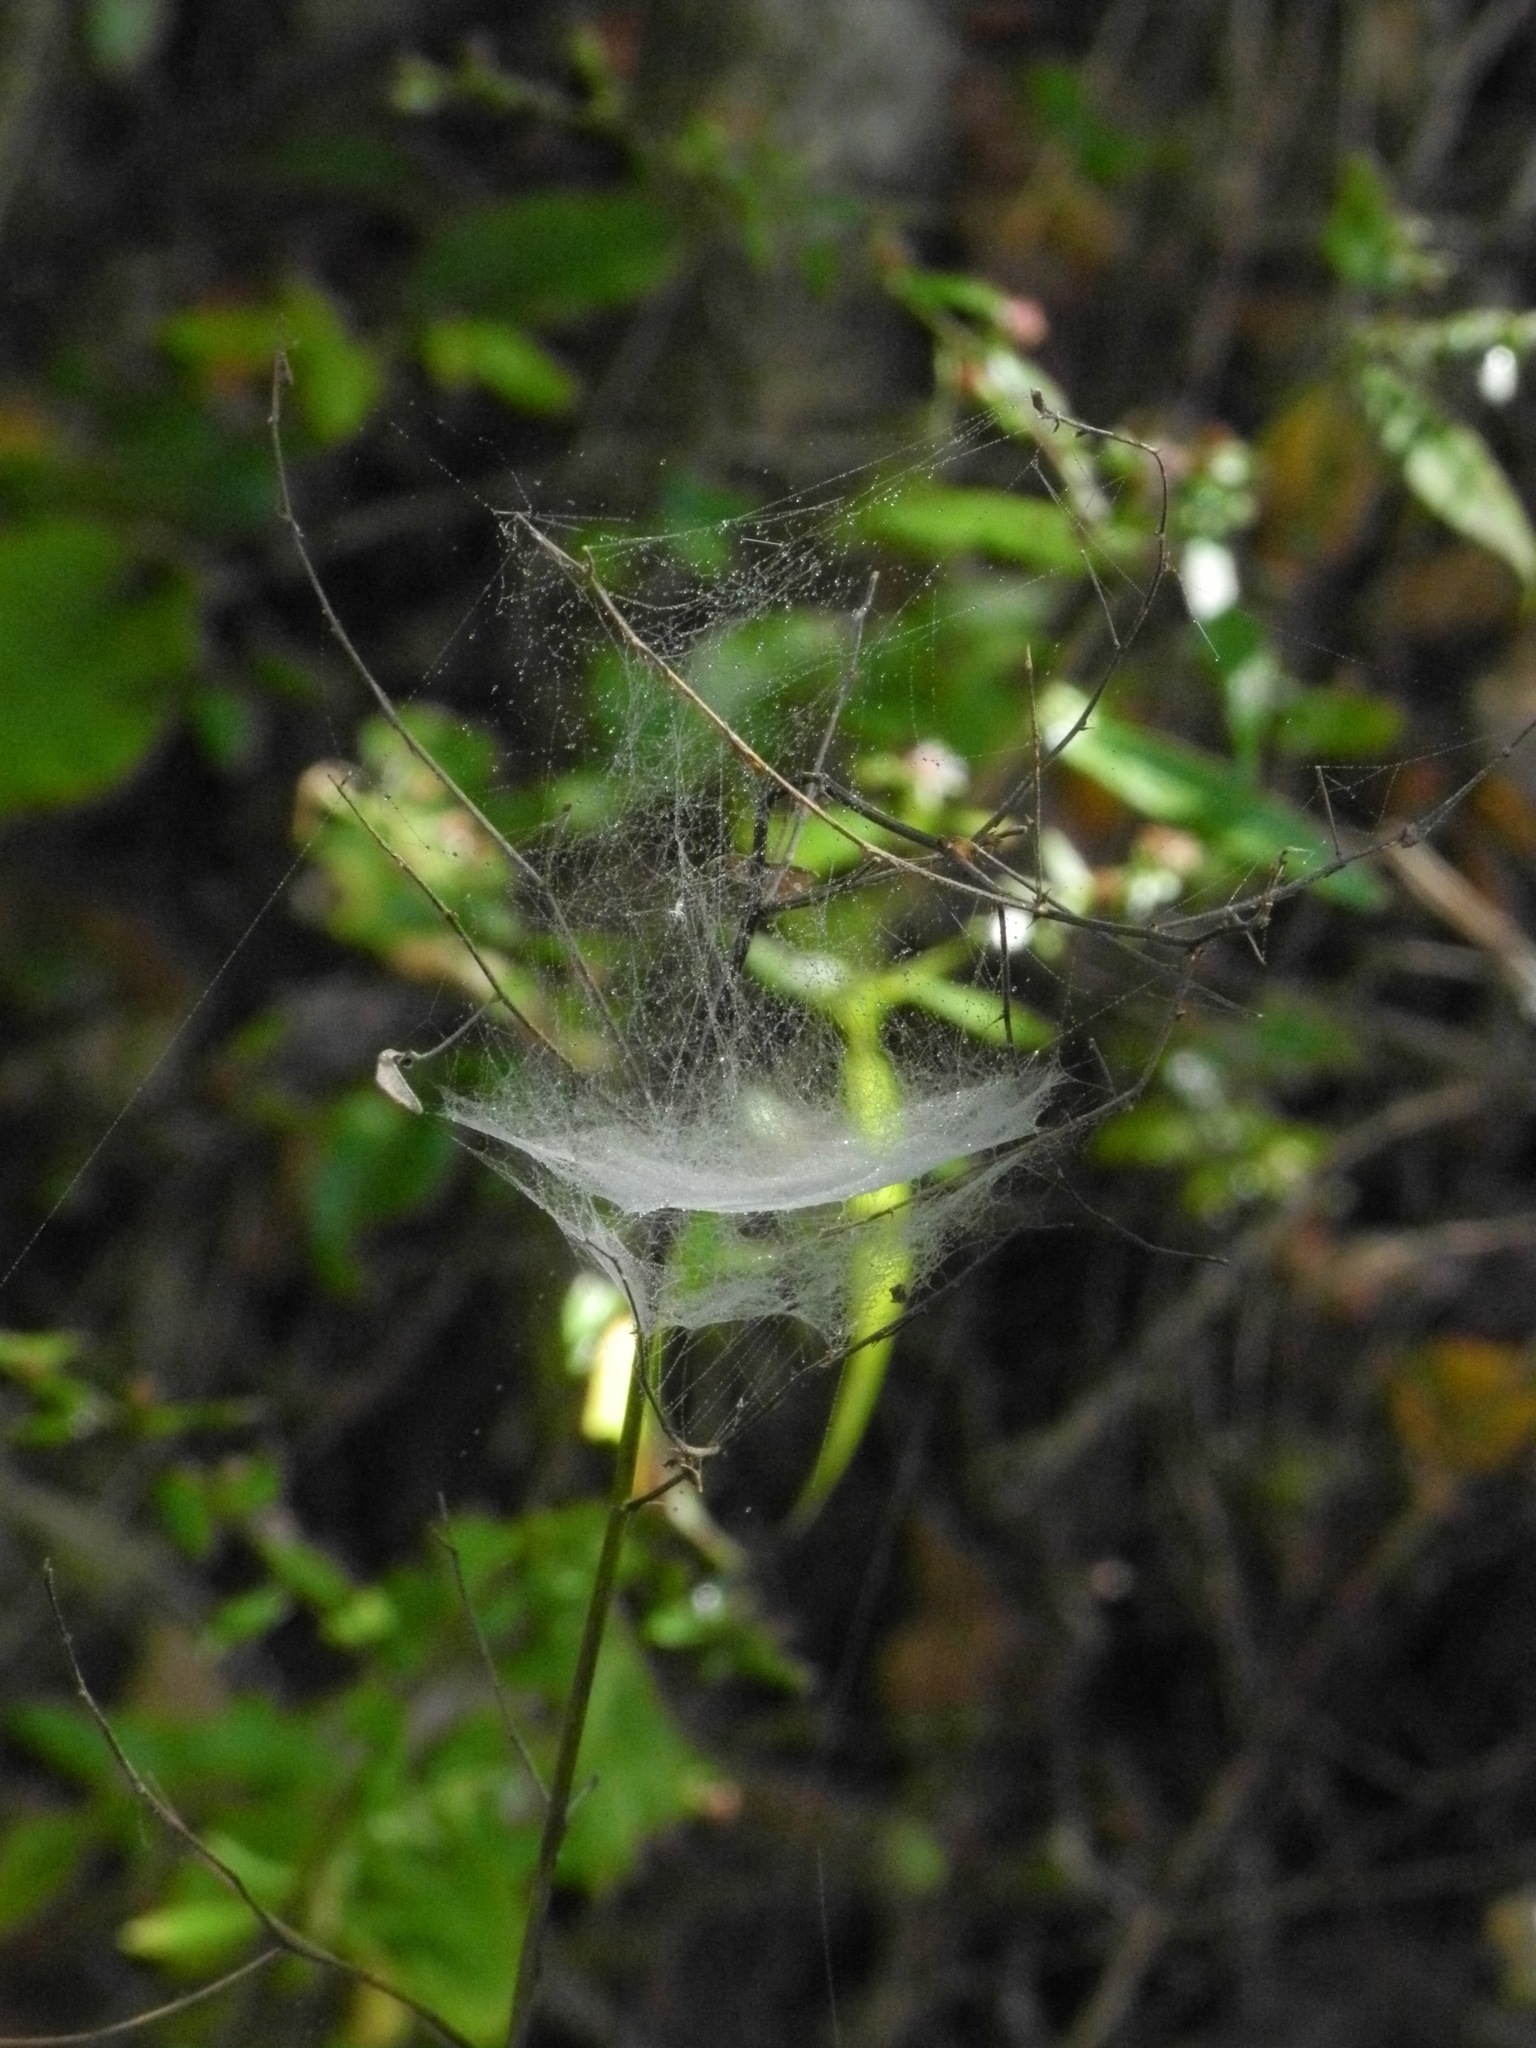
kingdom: Animalia
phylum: Arthropoda
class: Arachnida
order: Araneae
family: Linyphiidae
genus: Frontinella
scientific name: Frontinella pyramitela
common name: Bowl-and-doily spider
